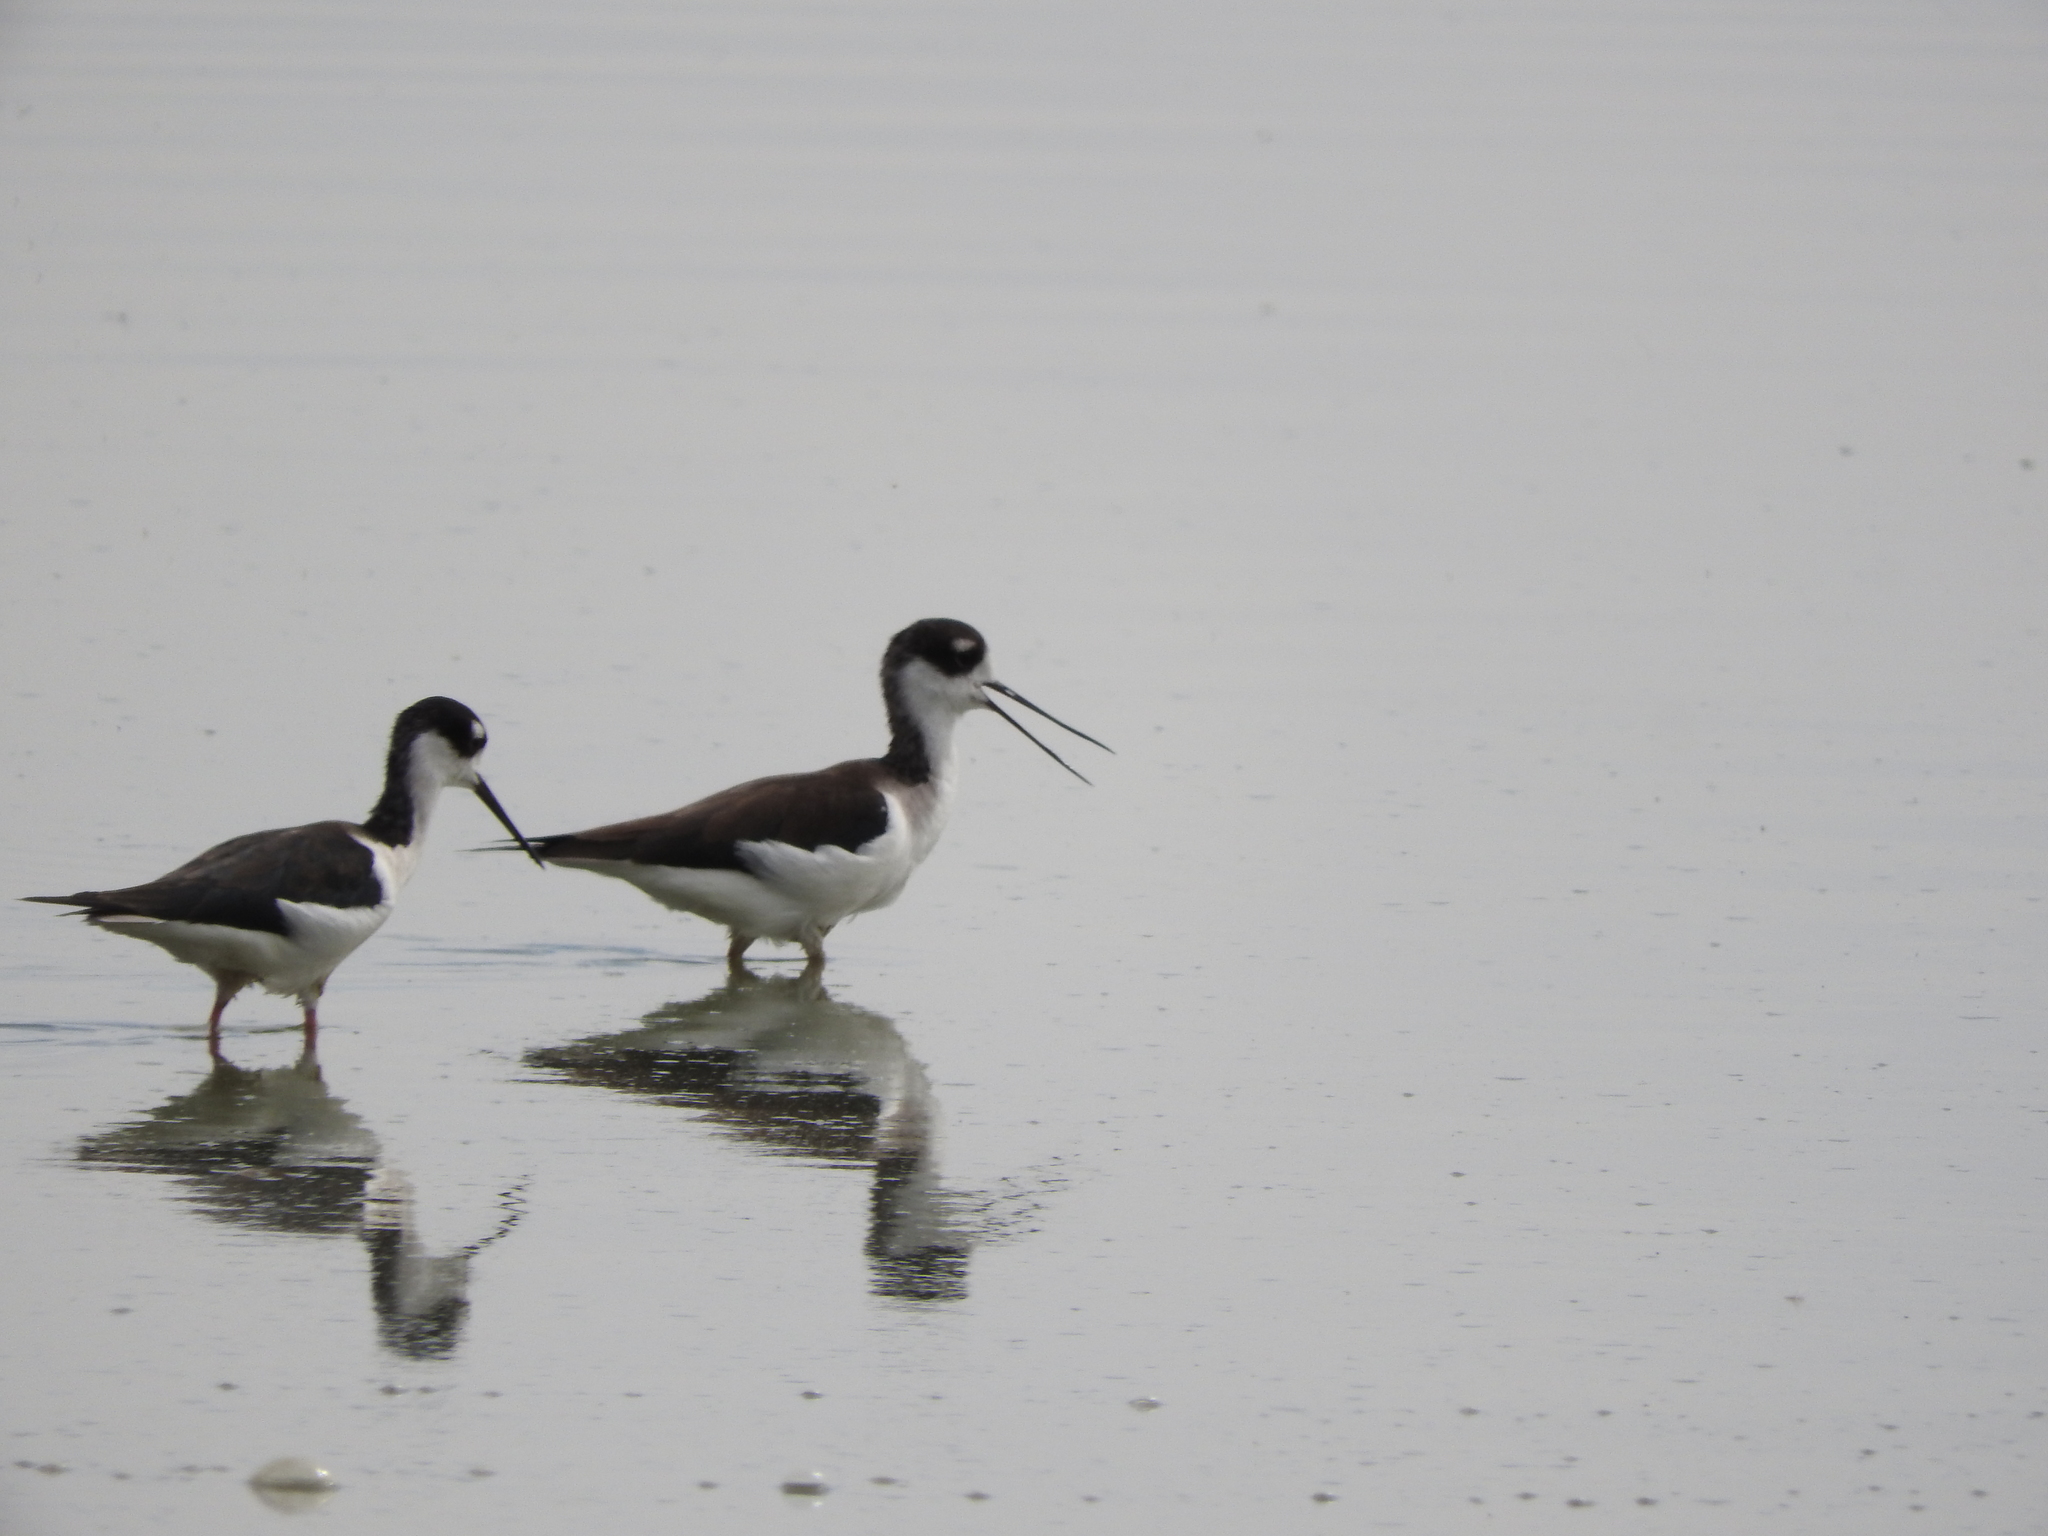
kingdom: Animalia
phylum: Chordata
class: Aves
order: Charadriiformes
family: Recurvirostridae
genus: Himantopus
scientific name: Himantopus mexicanus
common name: Black-necked stilt
